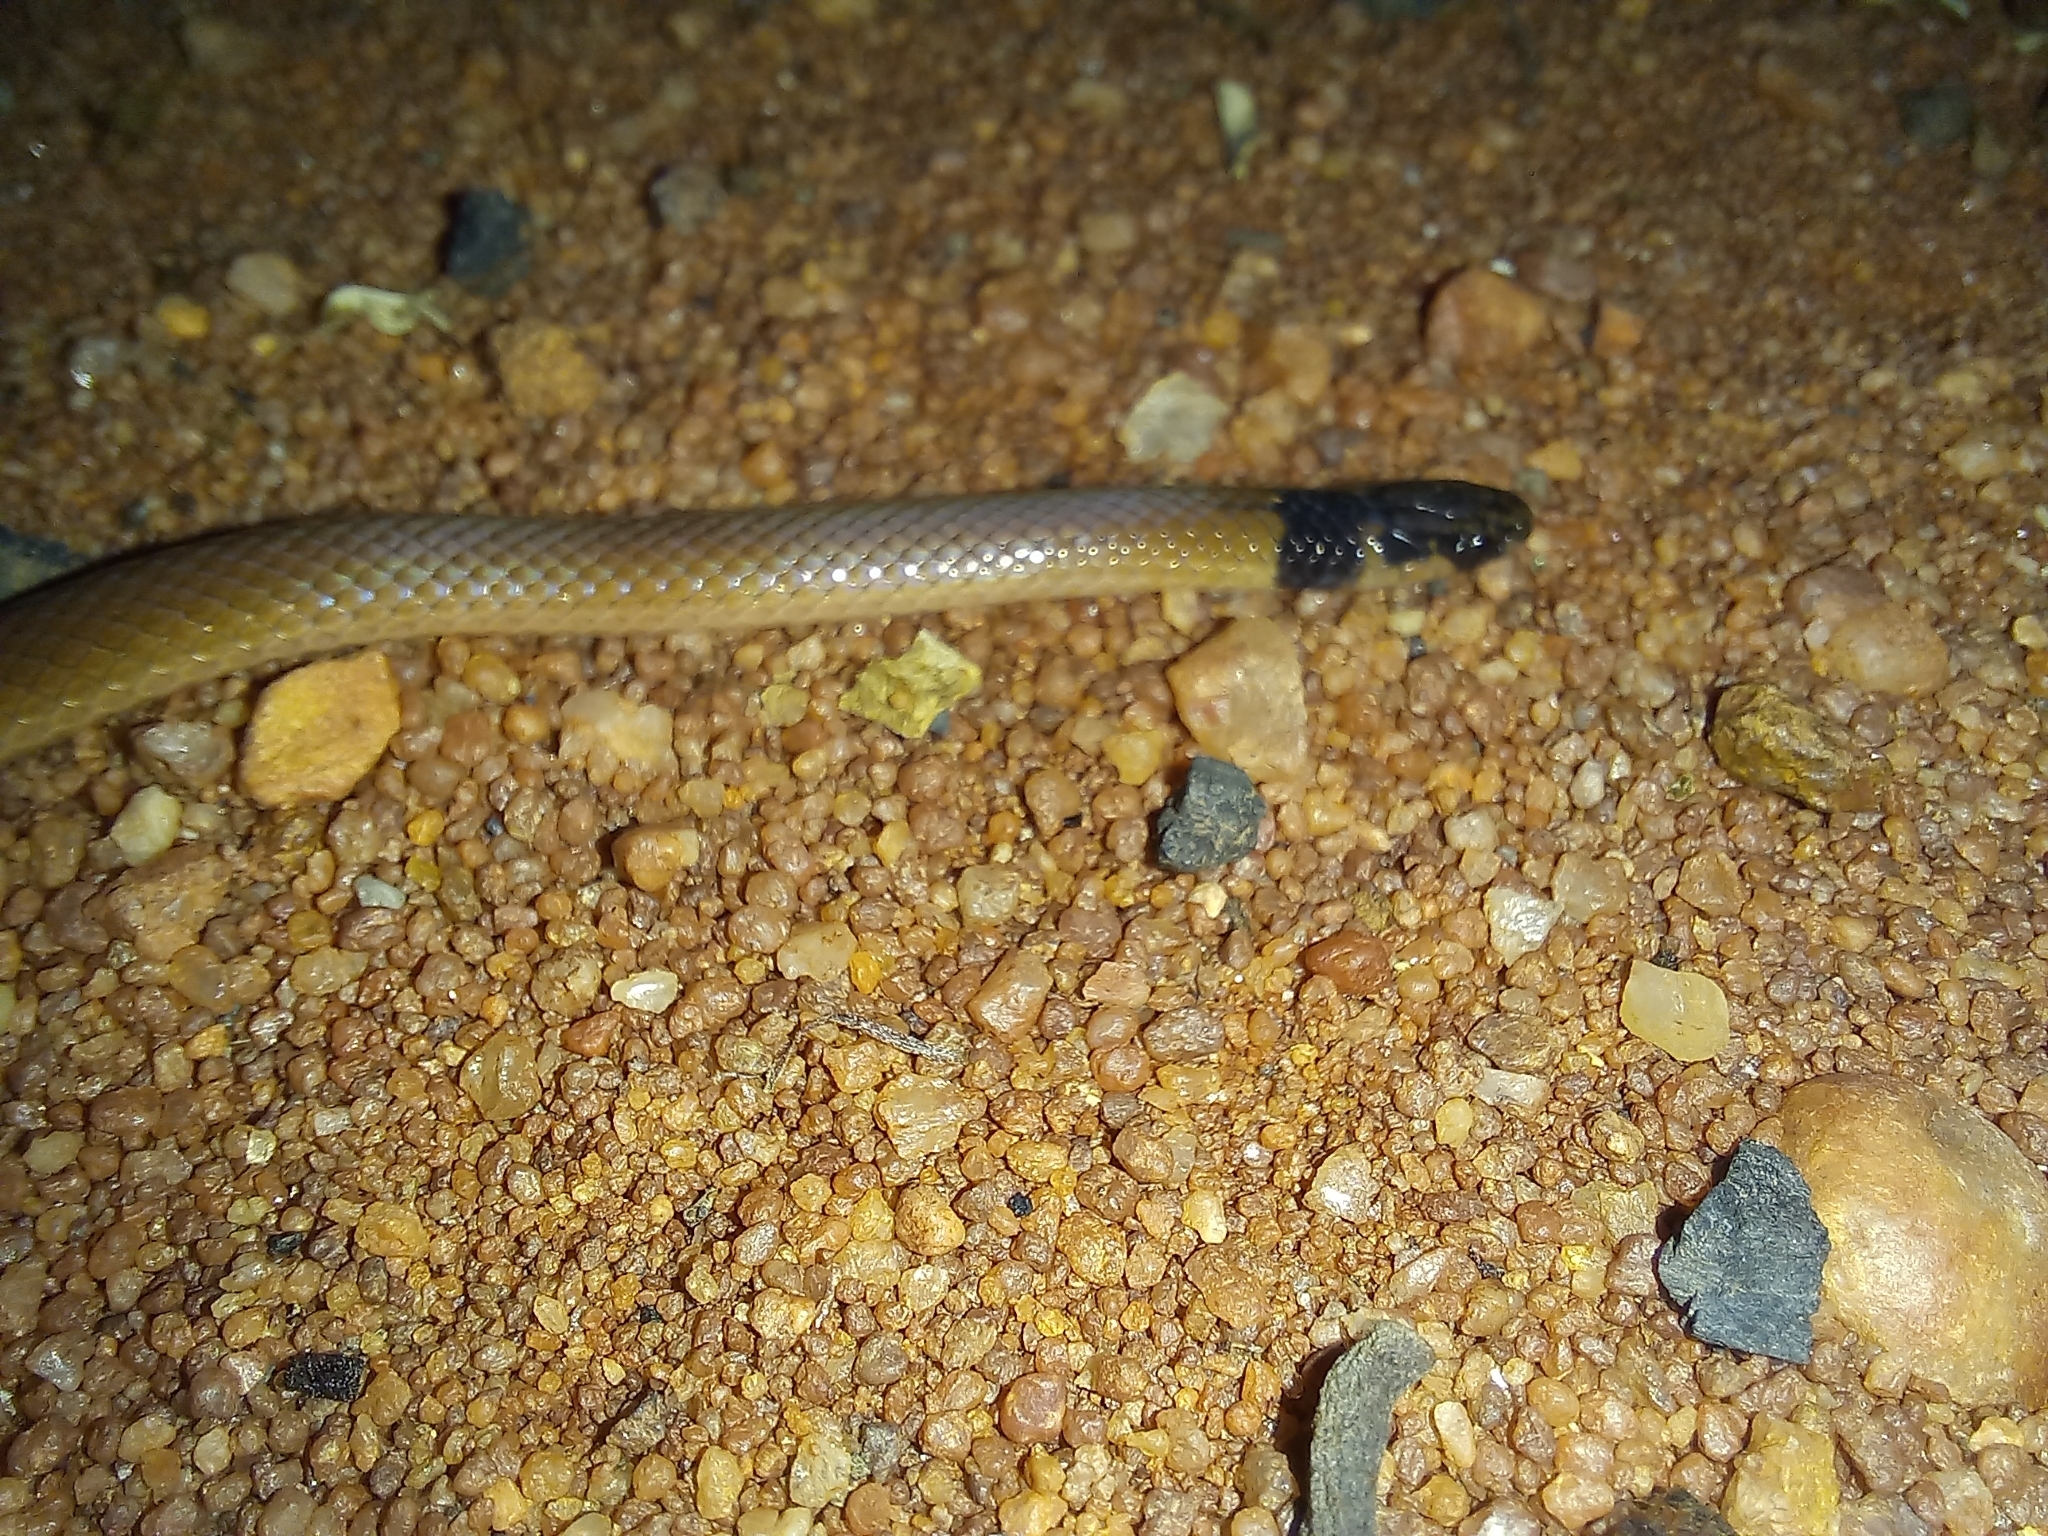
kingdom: Animalia
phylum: Chordata
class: Squamata
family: Atractaspididae
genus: Aparallactus
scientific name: Aparallactus capensis
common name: Cape centipede eater
